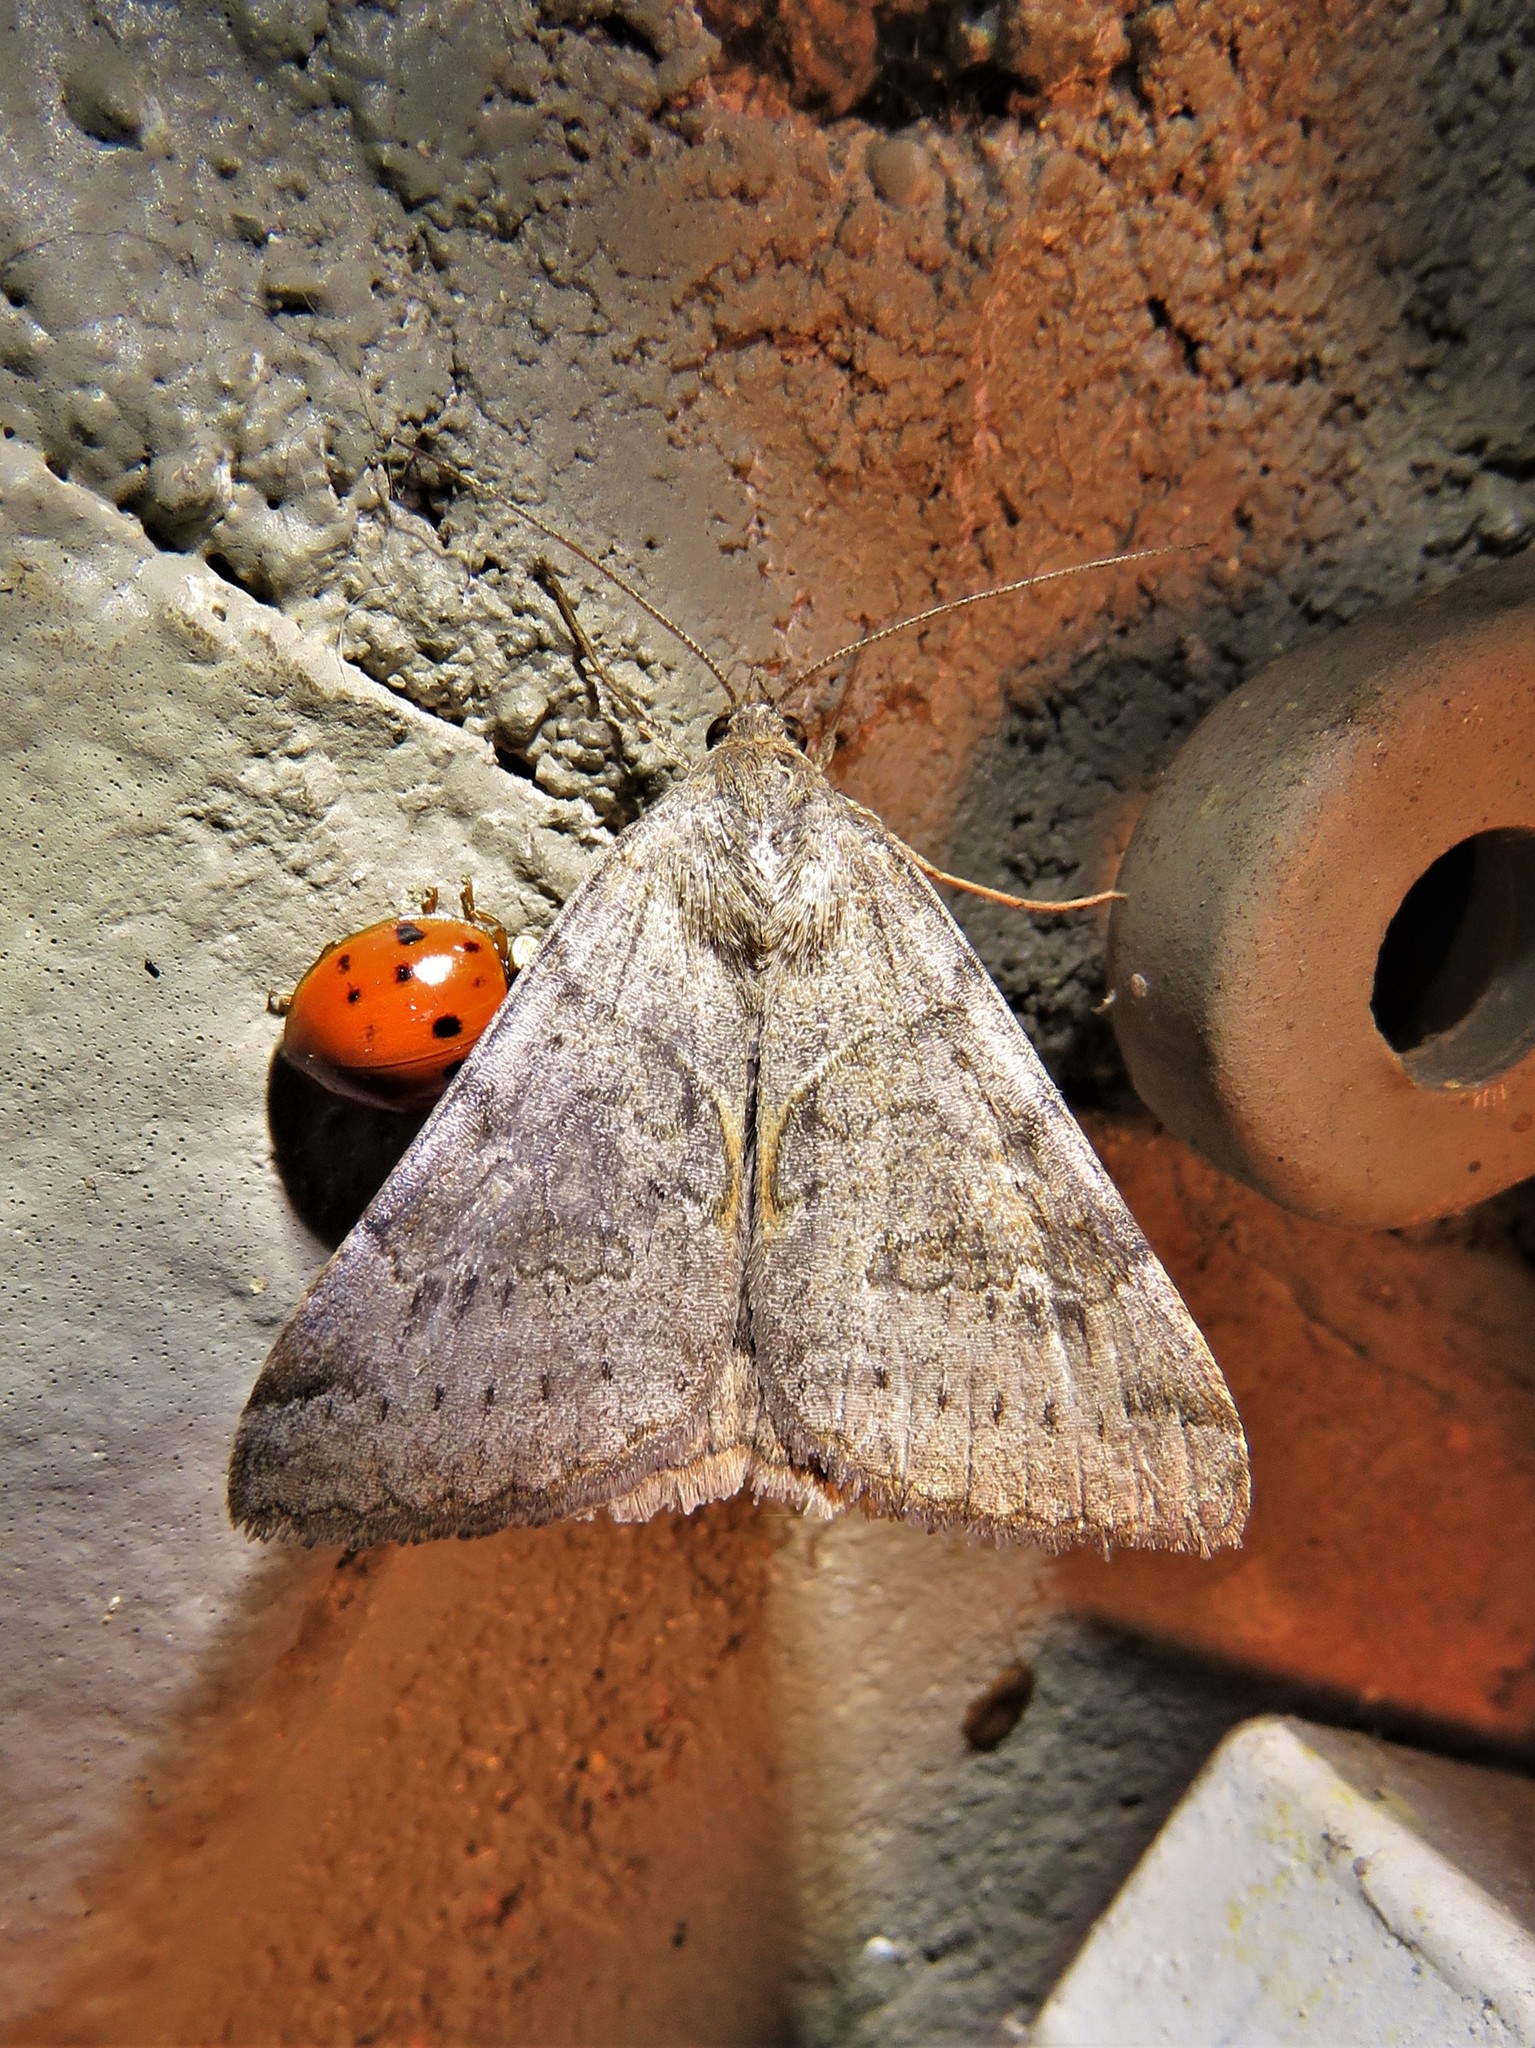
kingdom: Animalia
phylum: Arthropoda
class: Insecta
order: Lepidoptera
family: Erebidae
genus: Caenurgina
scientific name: Caenurgina erechtea
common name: Forage looper moth
